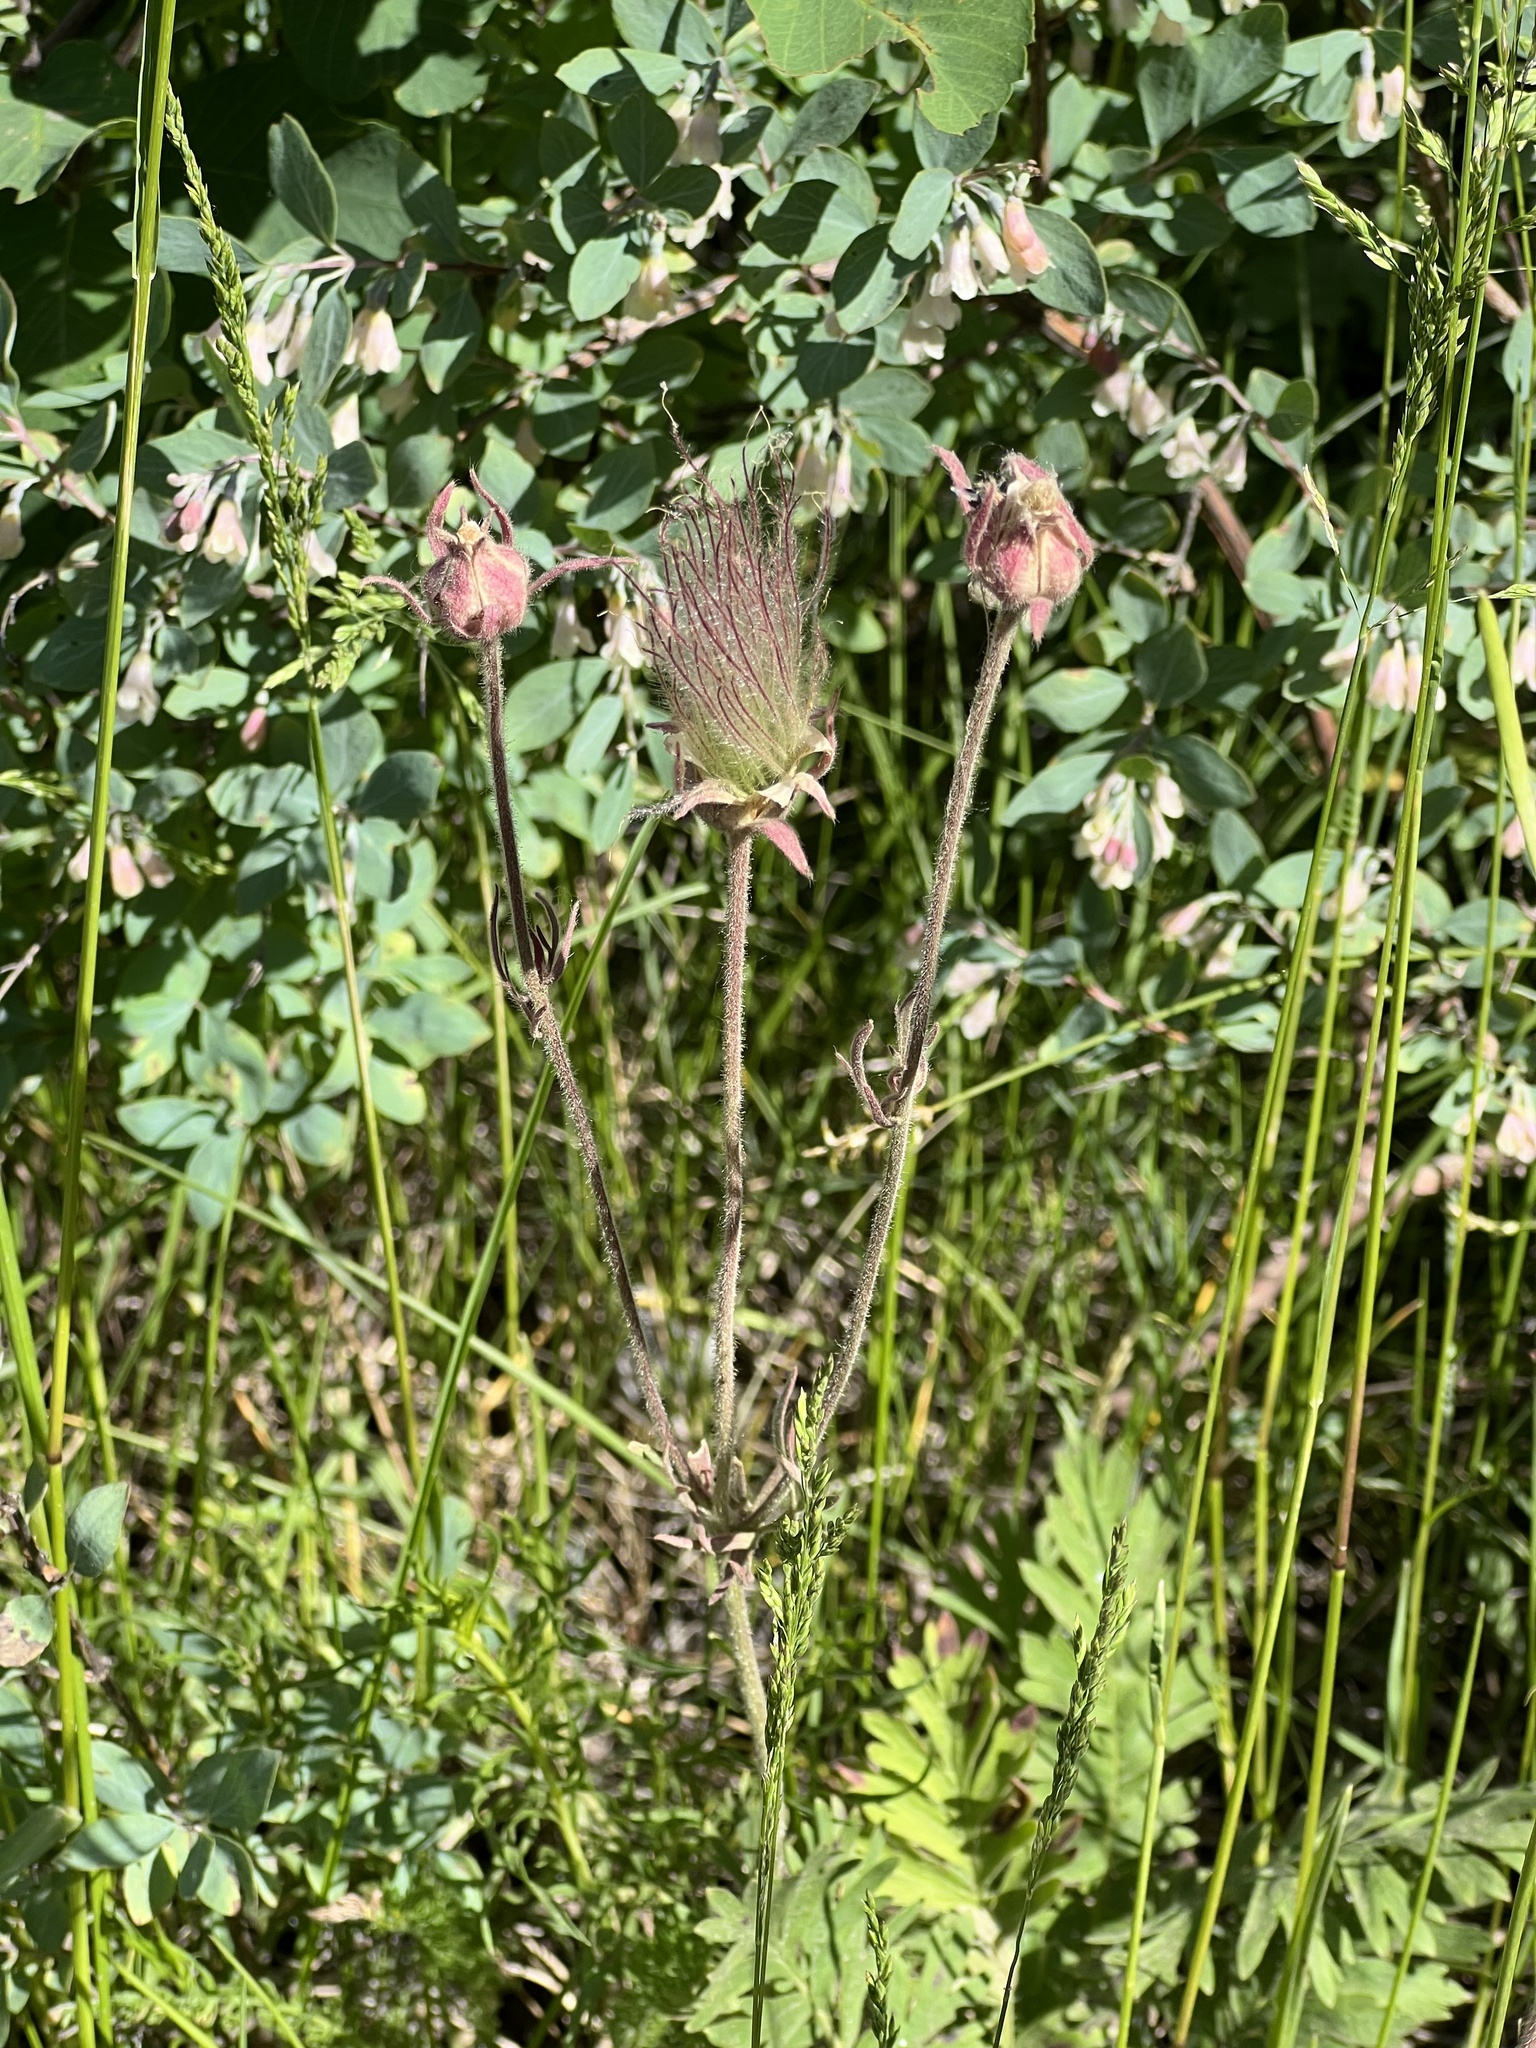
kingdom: Plantae
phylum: Tracheophyta
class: Magnoliopsida
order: Rosales
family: Rosaceae
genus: Geum
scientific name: Geum triflorum
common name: Old man's whiskers
